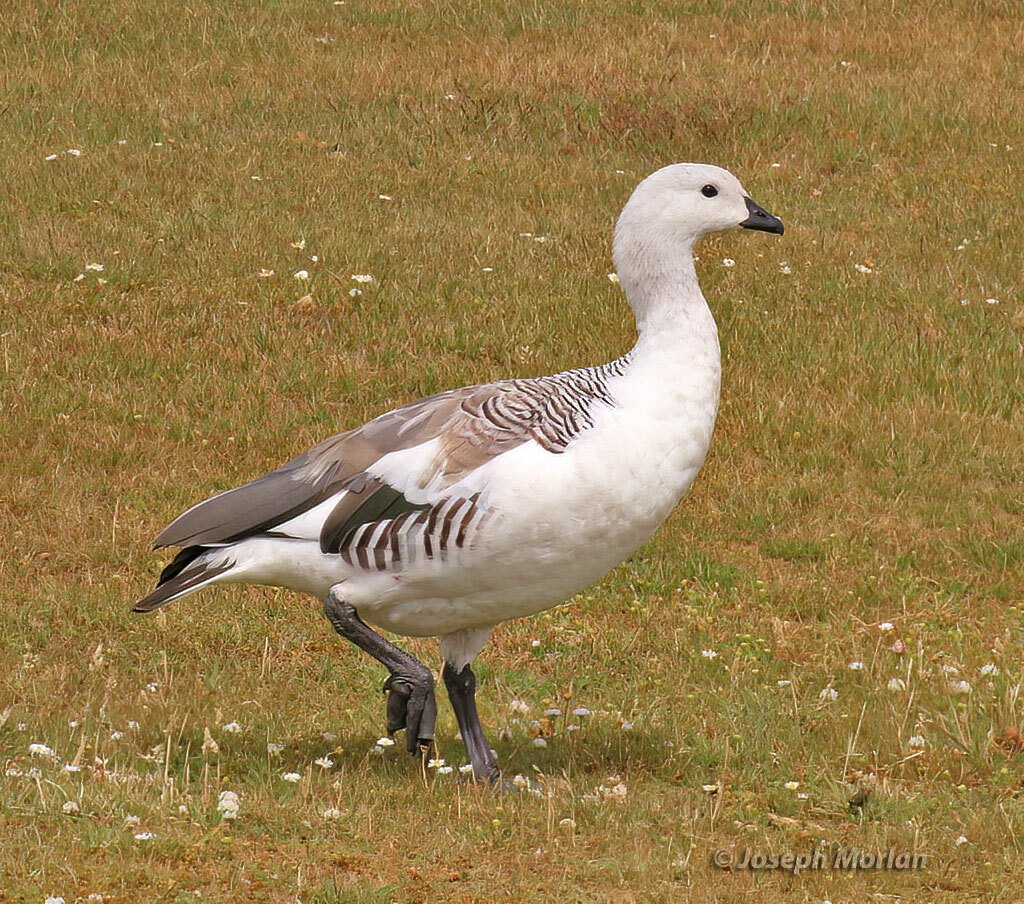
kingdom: Animalia
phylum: Chordata
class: Aves
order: Anseriformes
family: Anatidae
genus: Chloephaga
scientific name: Chloephaga picta
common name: Upland goose
